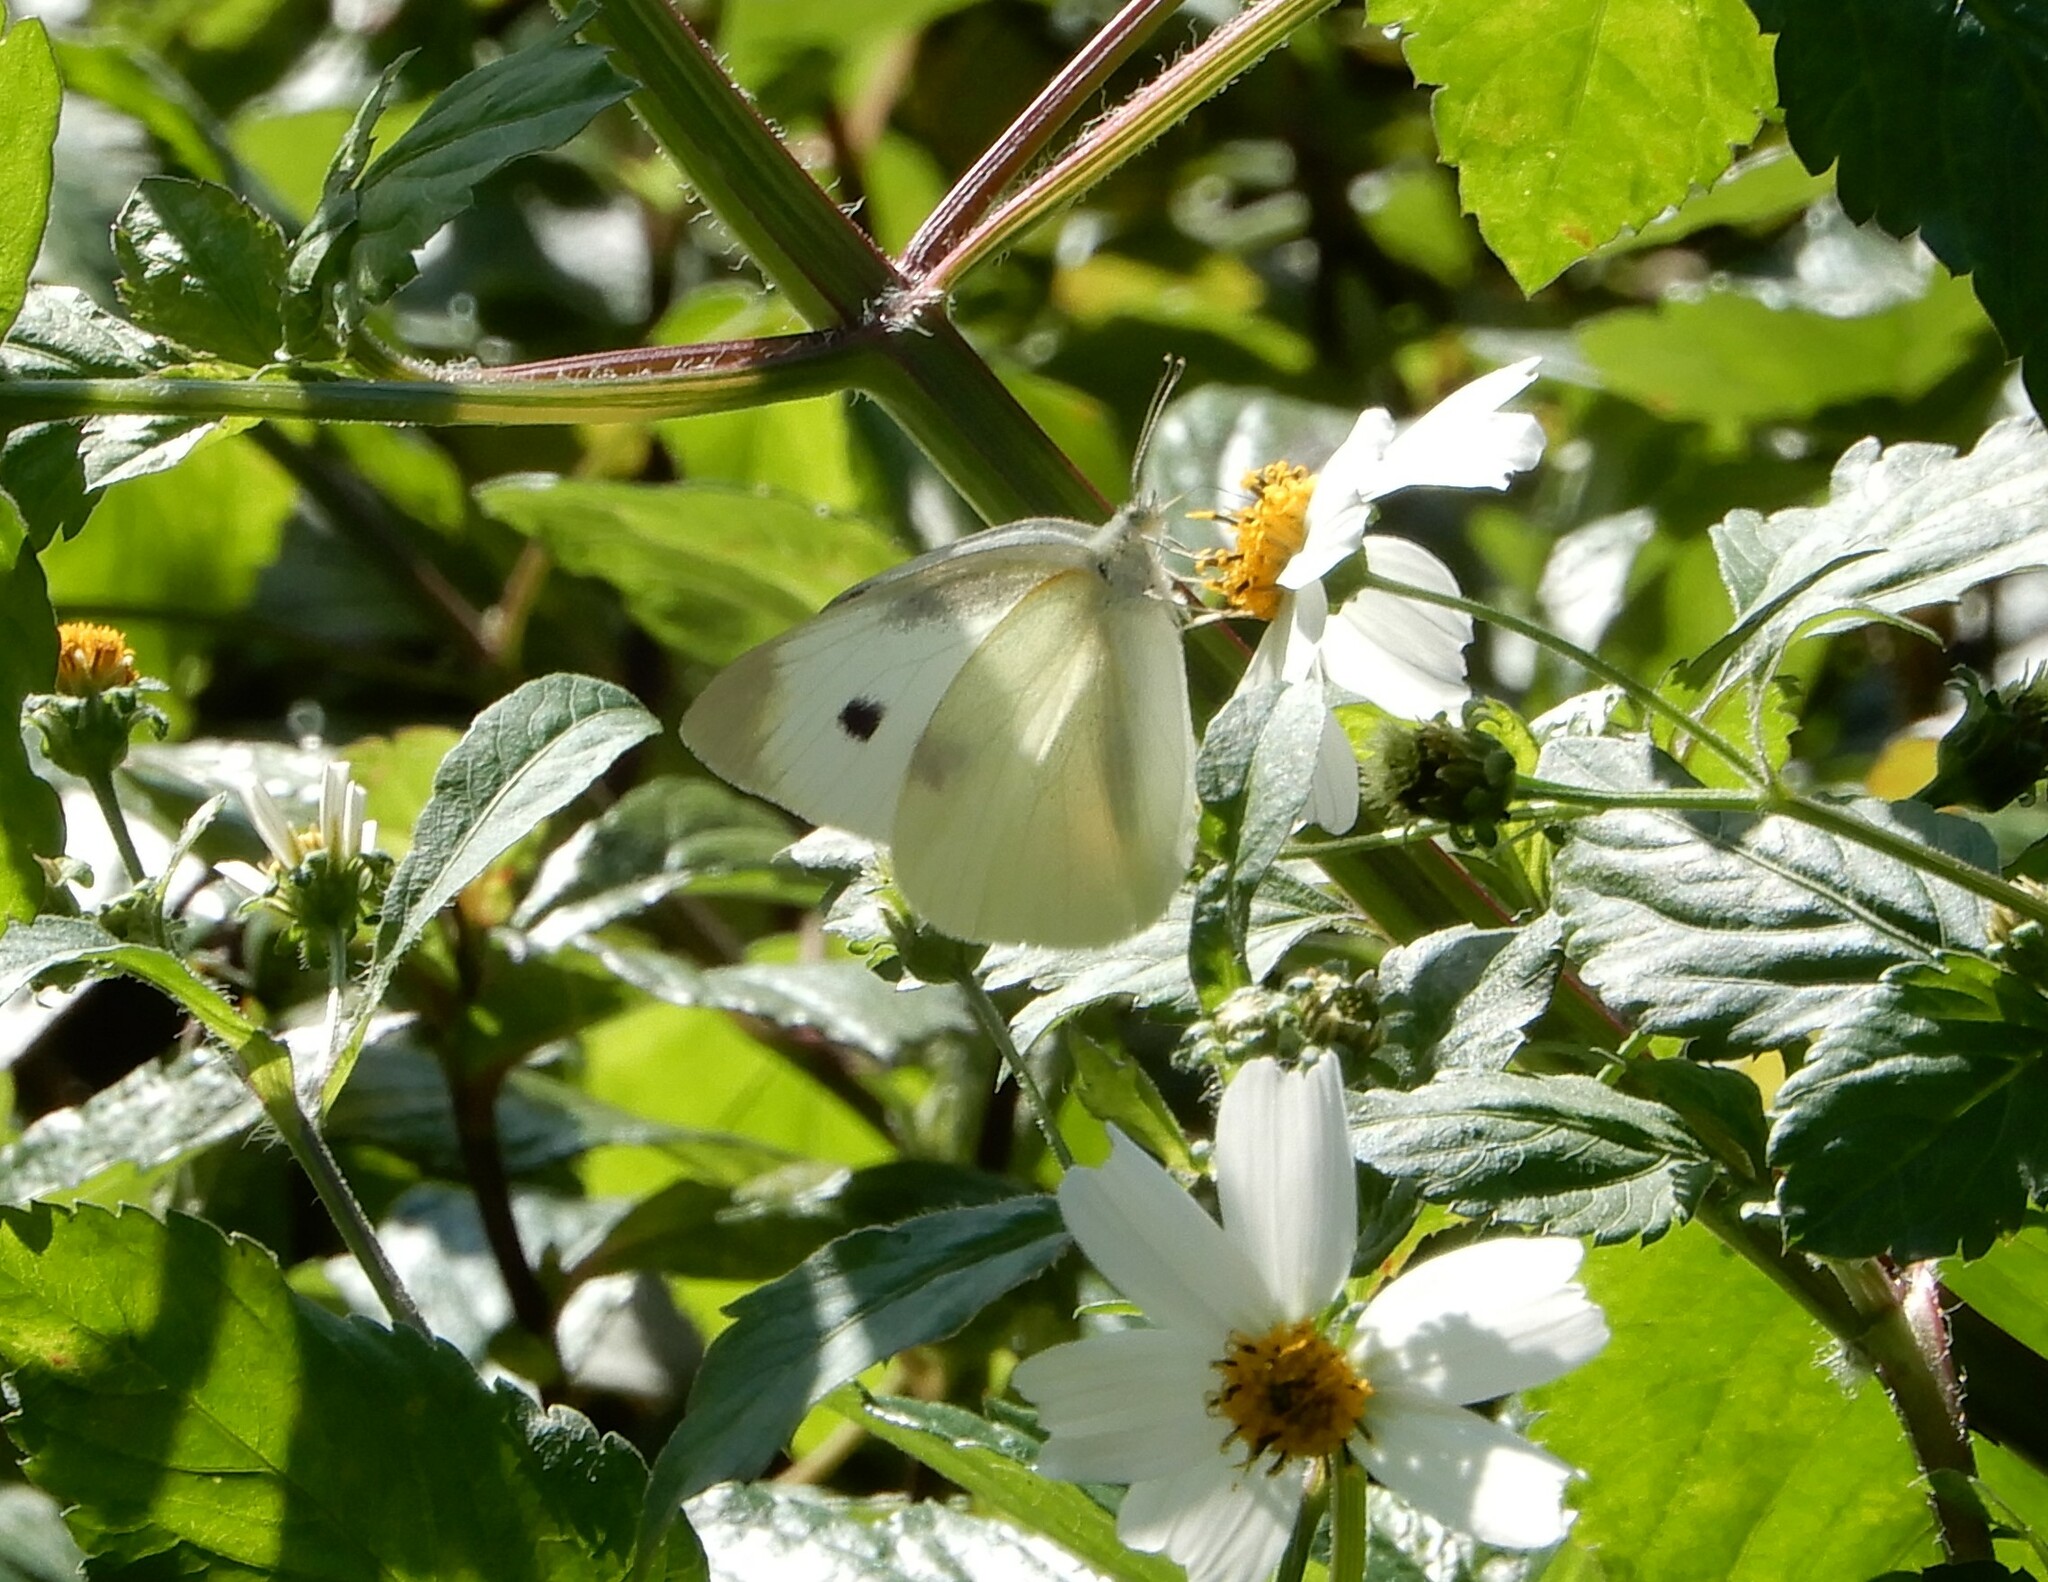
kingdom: Animalia
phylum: Arthropoda
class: Insecta
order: Lepidoptera
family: Pieridae
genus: Pieris
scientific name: Pieris rapae
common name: Small white
